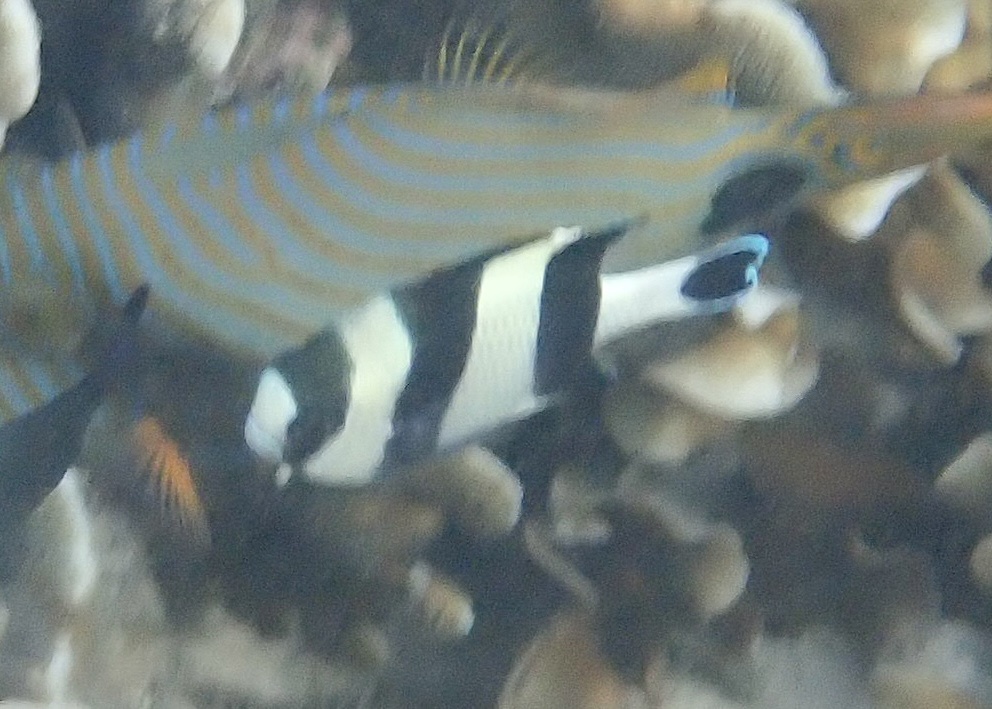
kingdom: Animalia
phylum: Chordata
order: Perciformes
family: Pomacentridae
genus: Dascyllus
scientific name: Dascyllus melanurus
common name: Black-tail dascyllus
